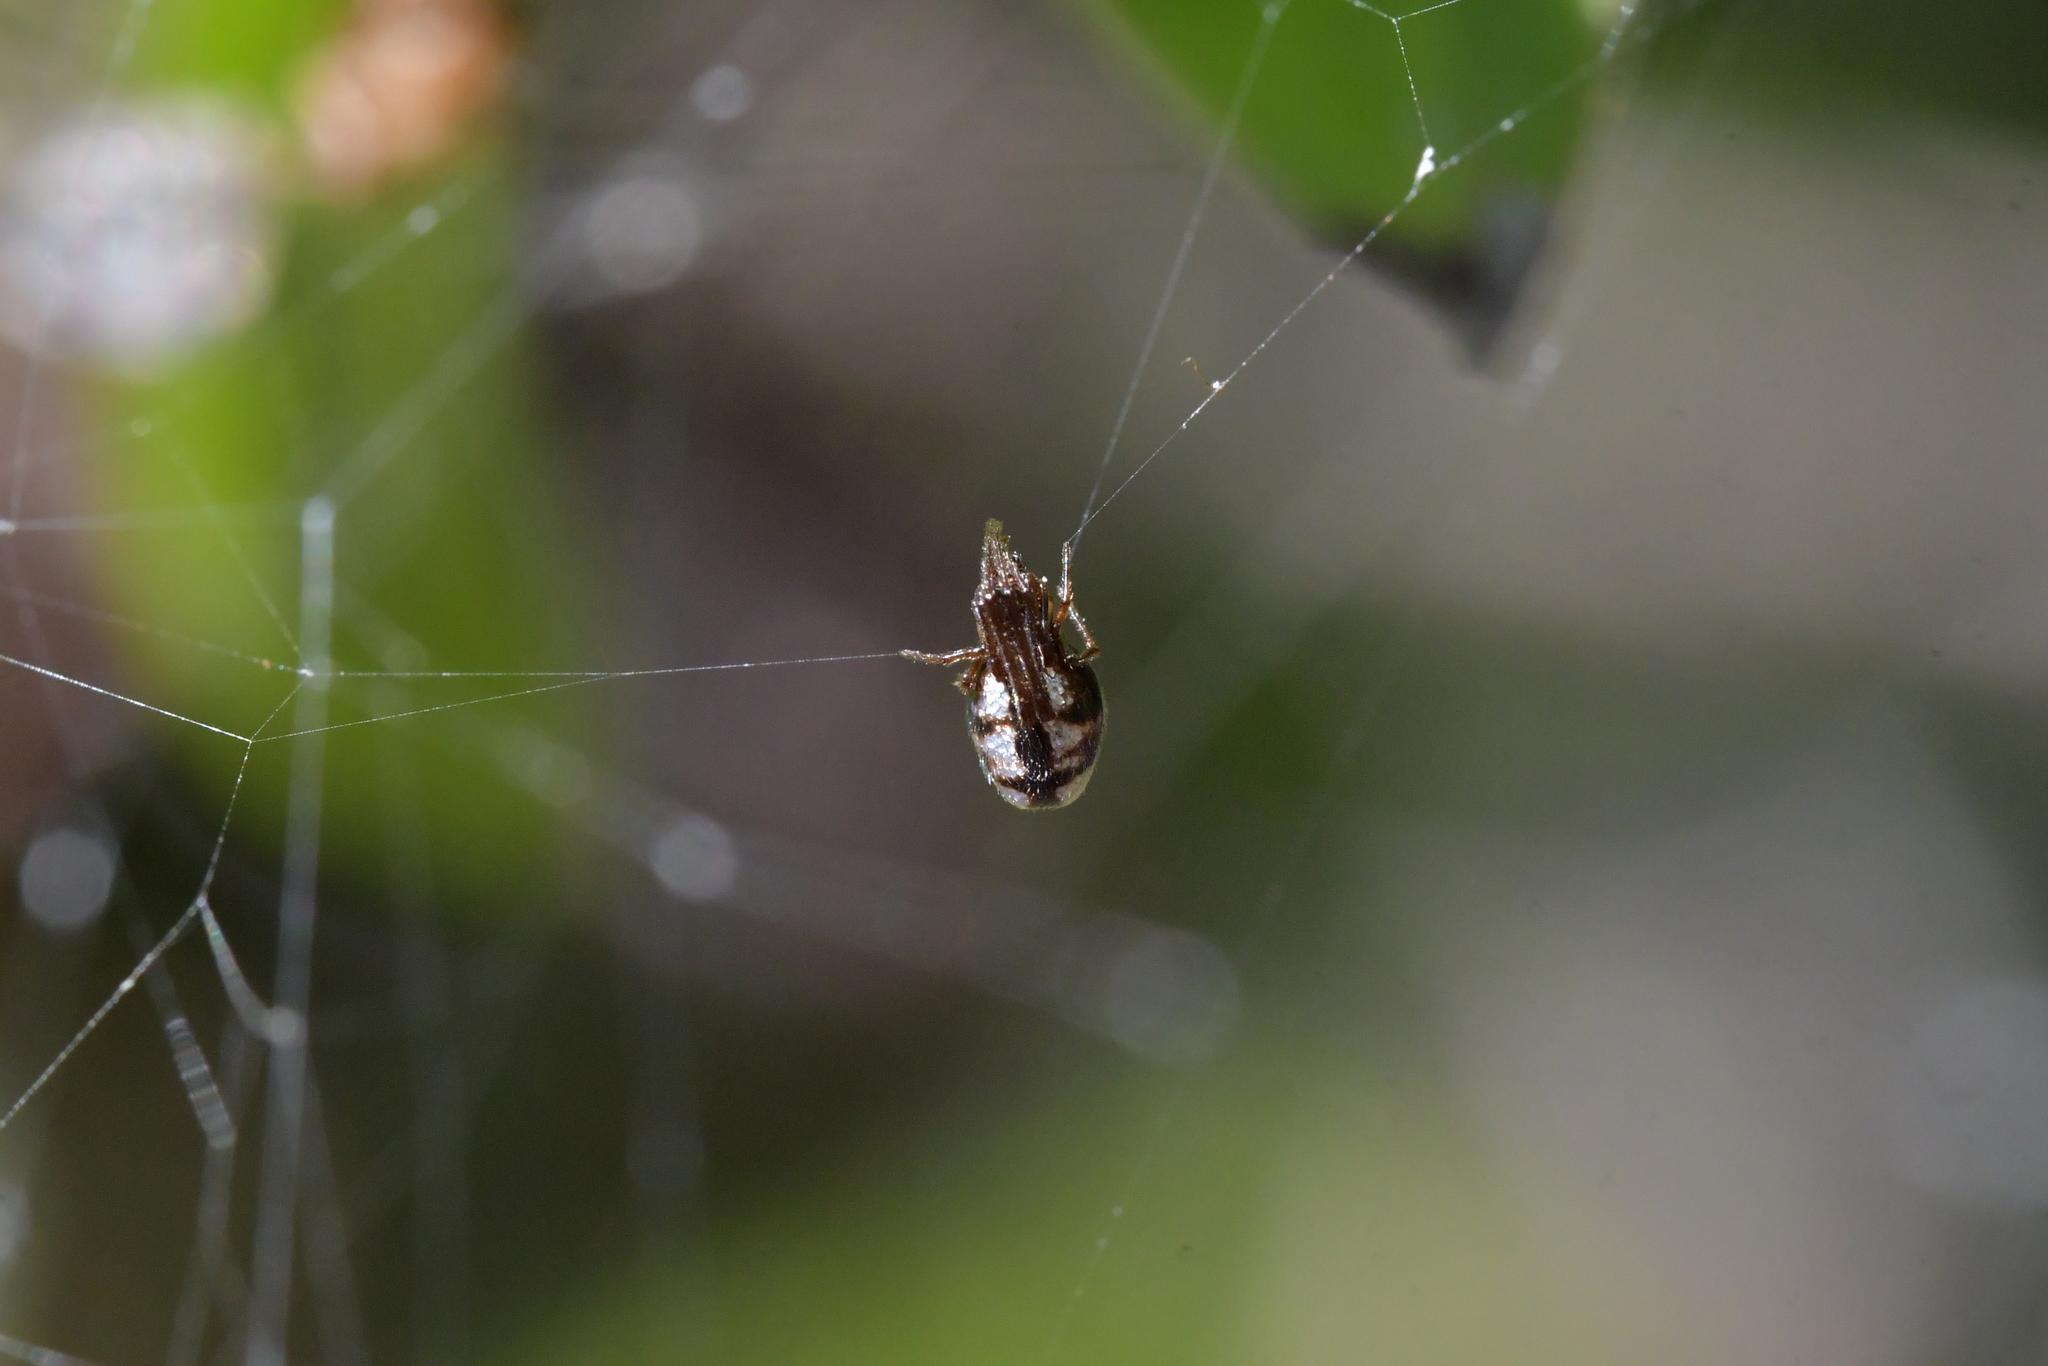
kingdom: Animalia
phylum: Arthropoda
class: Arachnida
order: Araneae
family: Theridiidae
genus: Argyrodes
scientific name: Argyrodes antipodianus
